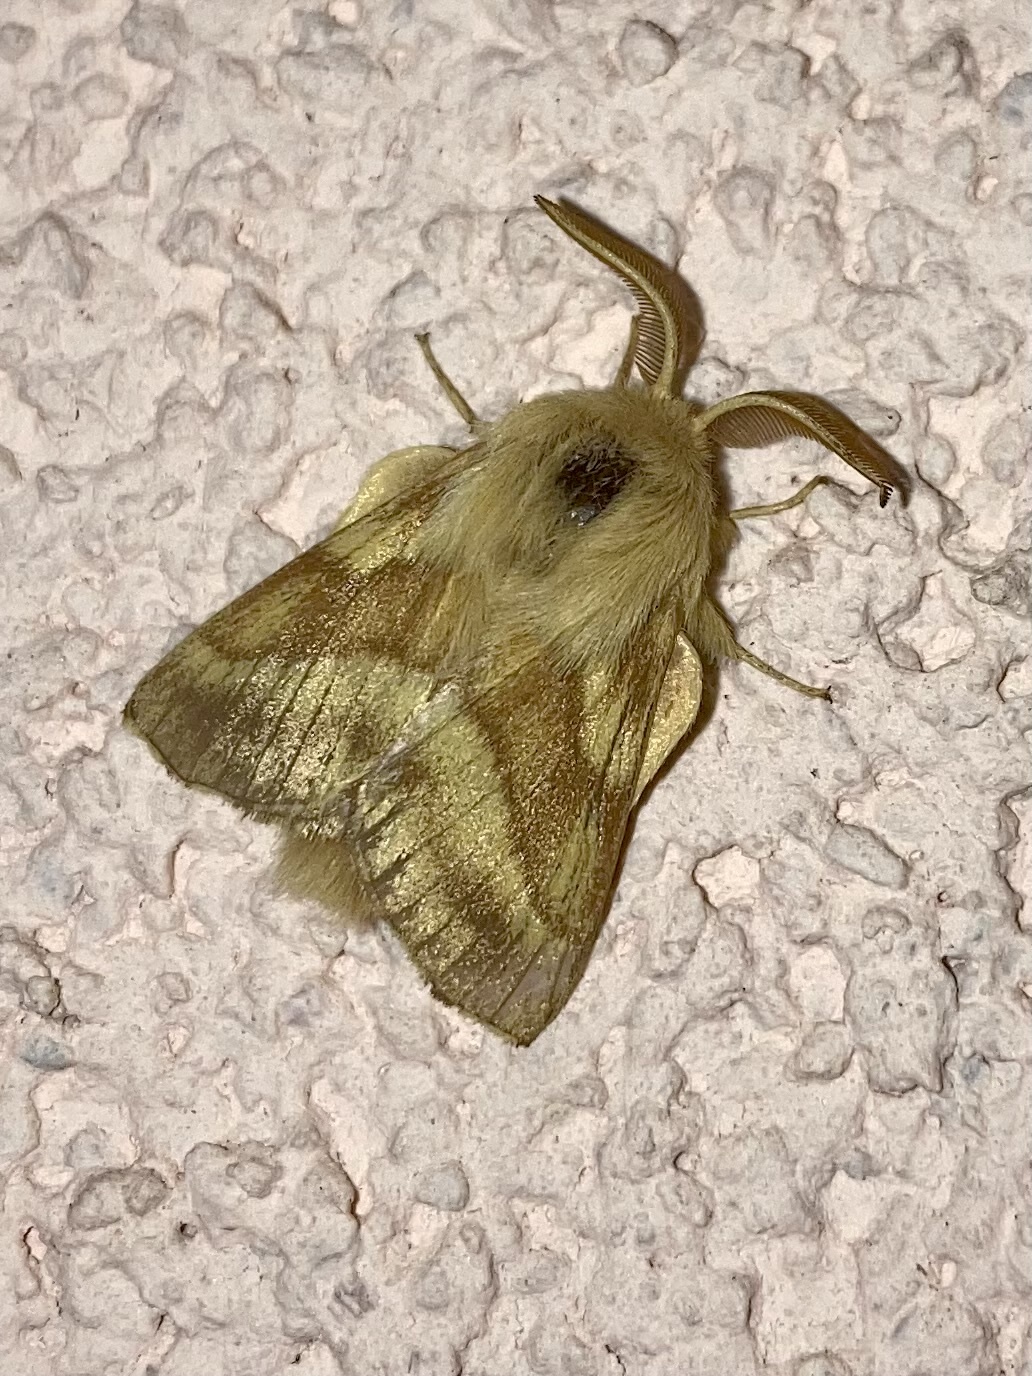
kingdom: Animalia
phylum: Arthropoda
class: Insecta
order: Lepidoptera
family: Lasiocampidae
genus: Malacosoma
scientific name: Malacosoma castrense
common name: Ground lackey
